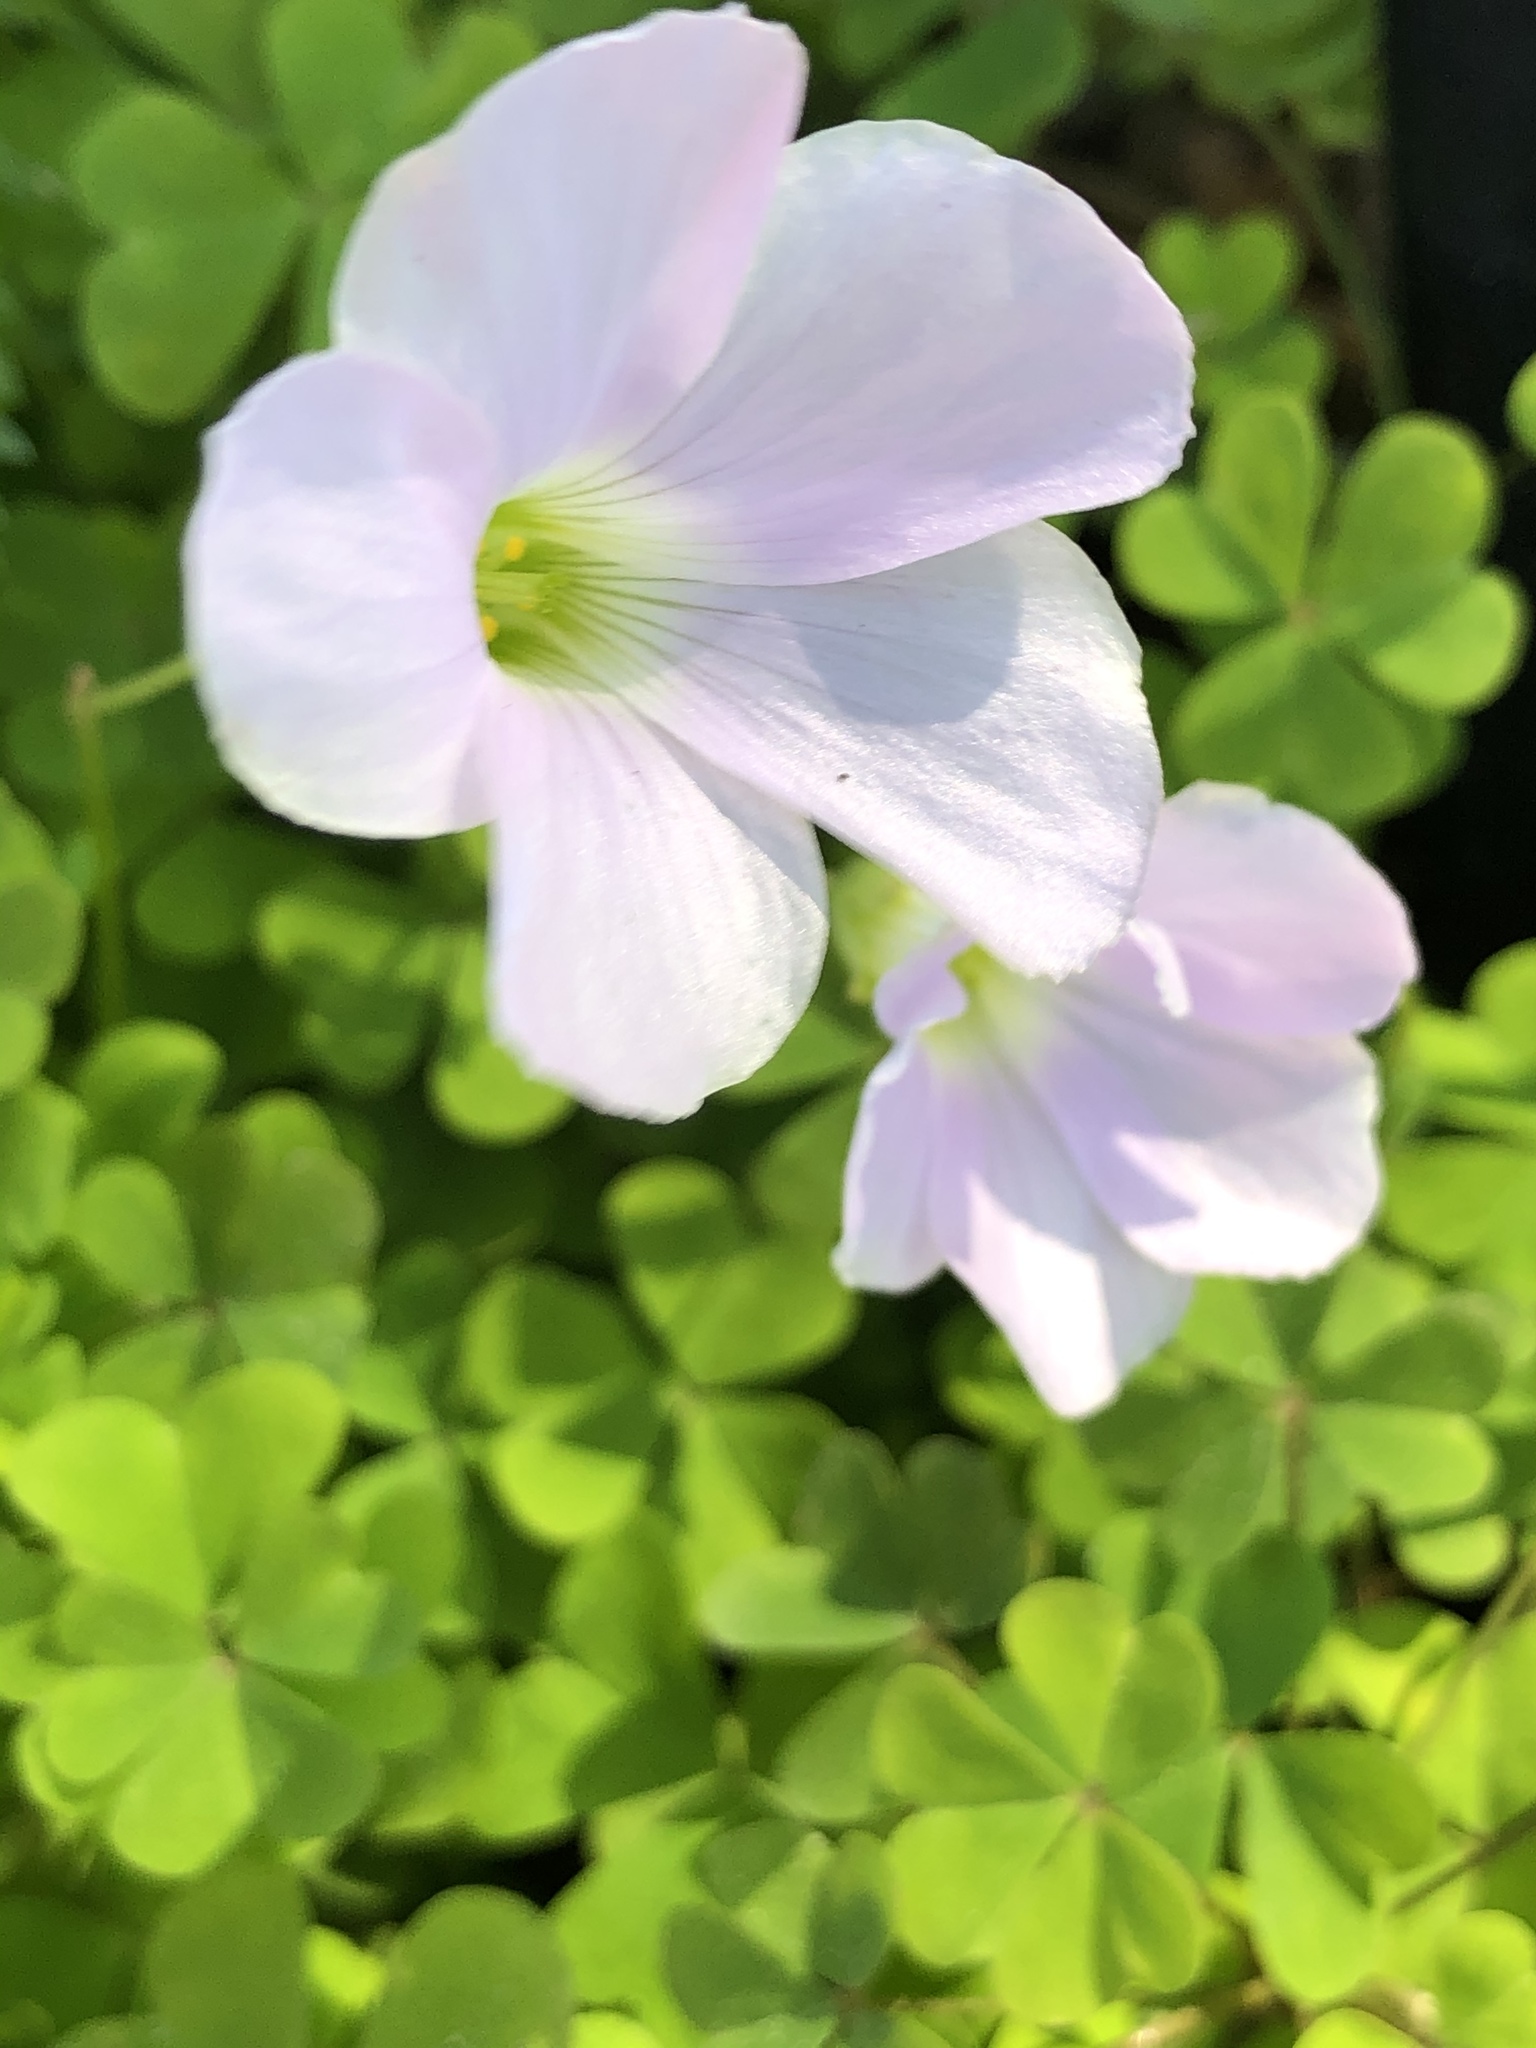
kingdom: Plantae
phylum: Tracheophyta
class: Magnoliopsida
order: Oxalidales
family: Oxalidaceae
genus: Oxalis
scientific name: Oxalis incarnata
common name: Pale pink-sorrel
